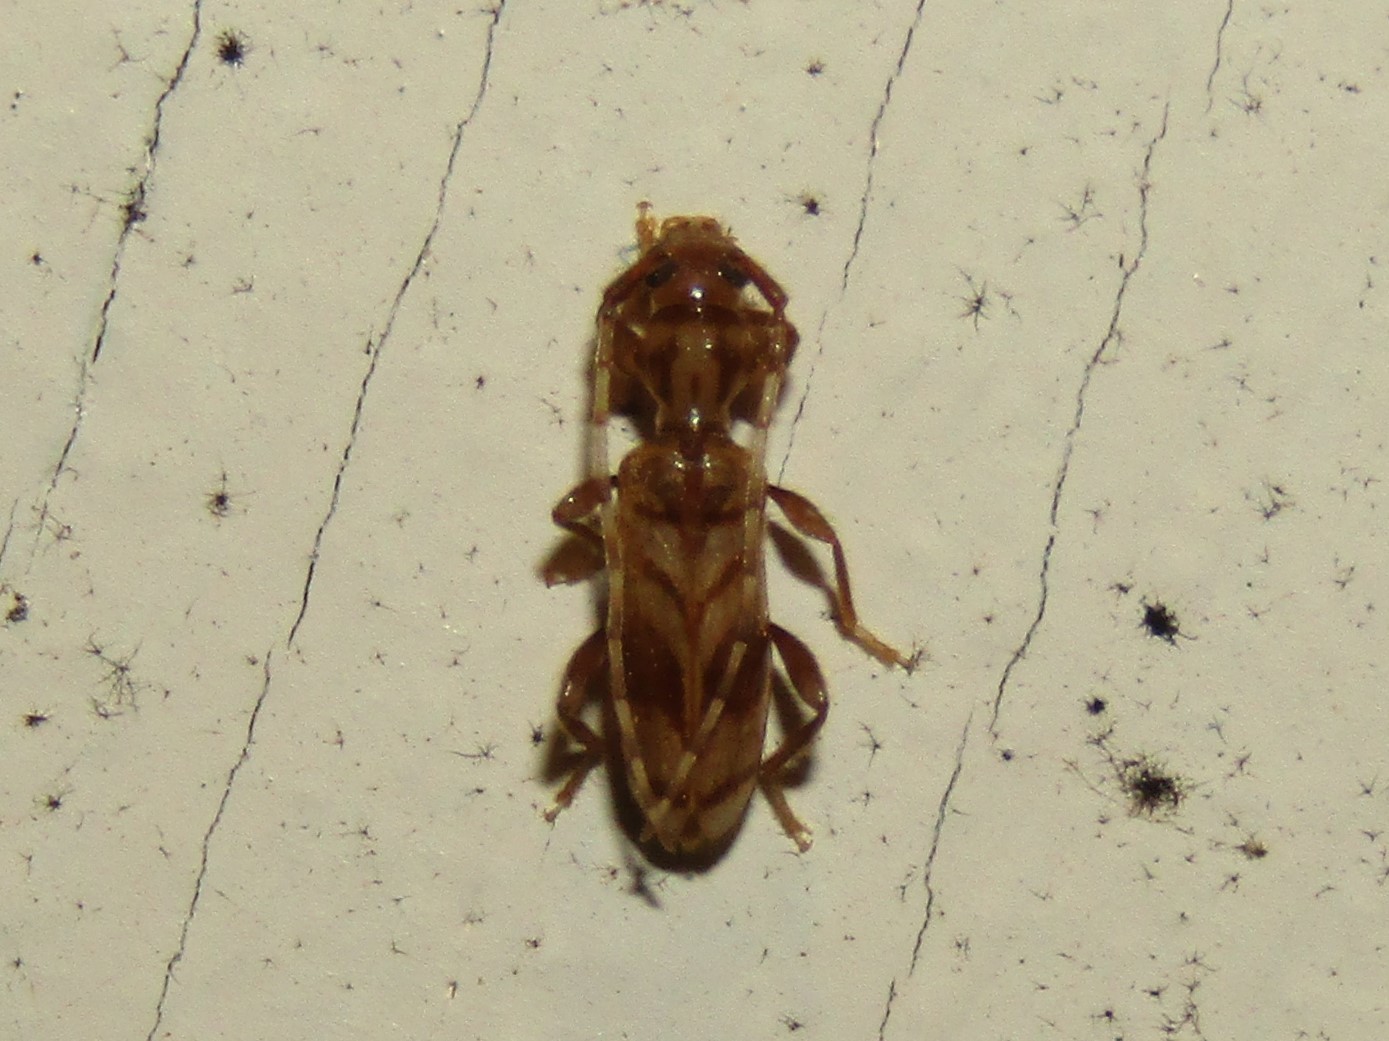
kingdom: Animalia
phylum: Arthropoda
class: Insecta
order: Coleoptera
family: Cerambycidae
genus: Obrium
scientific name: Obrium maculatum
